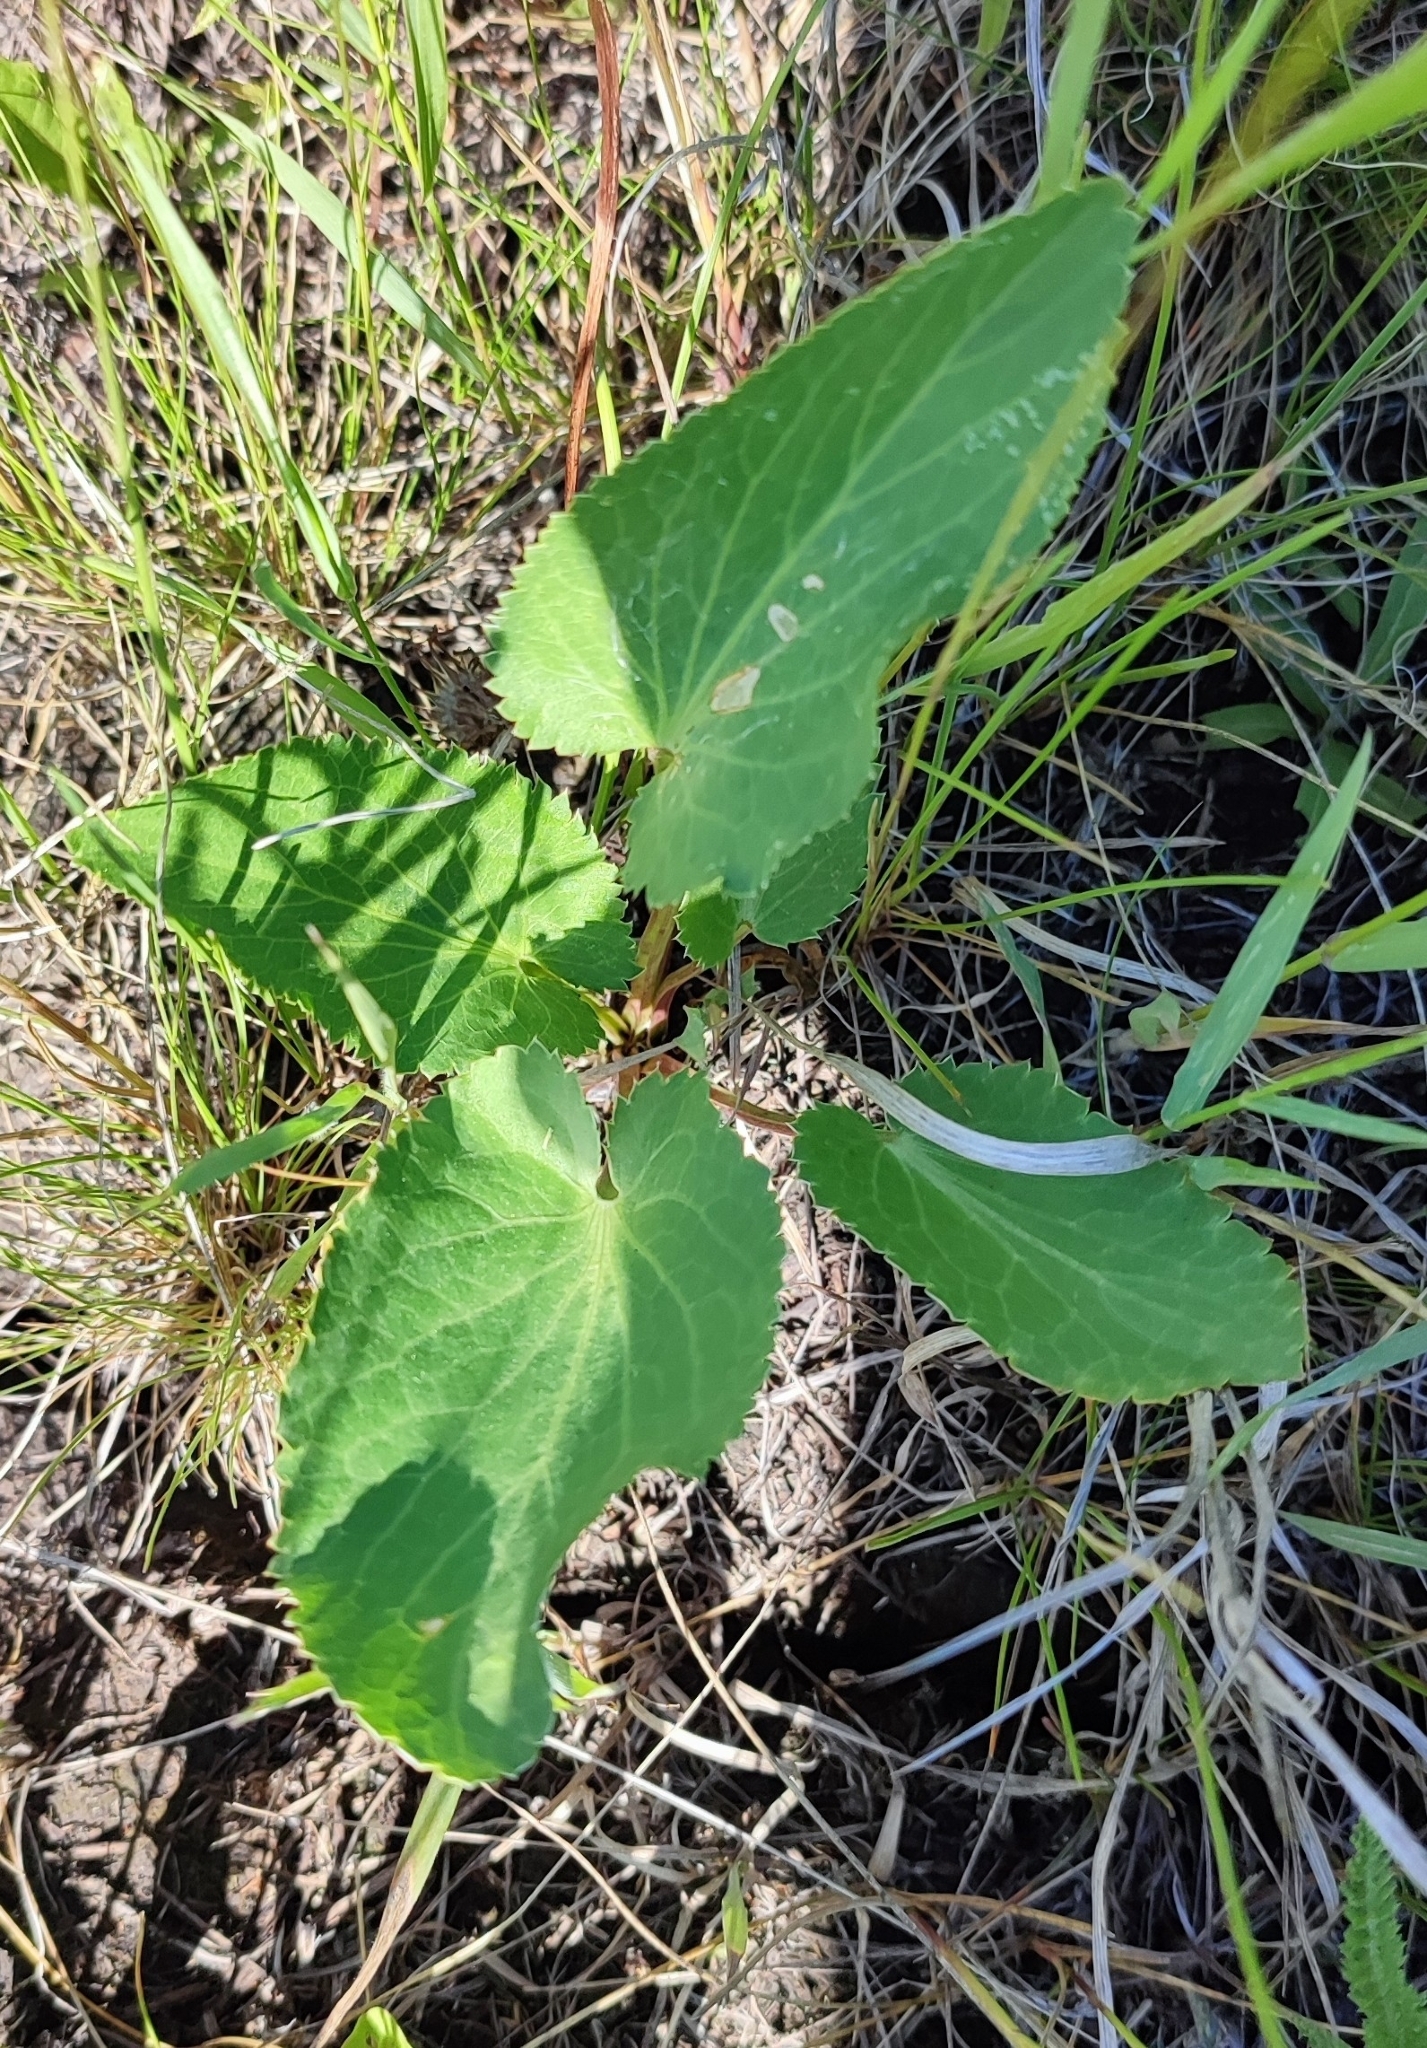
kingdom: Plantae
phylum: Tracheophyta
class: Magnoliopsida
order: Apiales
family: Apiaceae
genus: Eryngium
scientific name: Eryngium planum
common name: Blue eryngo
